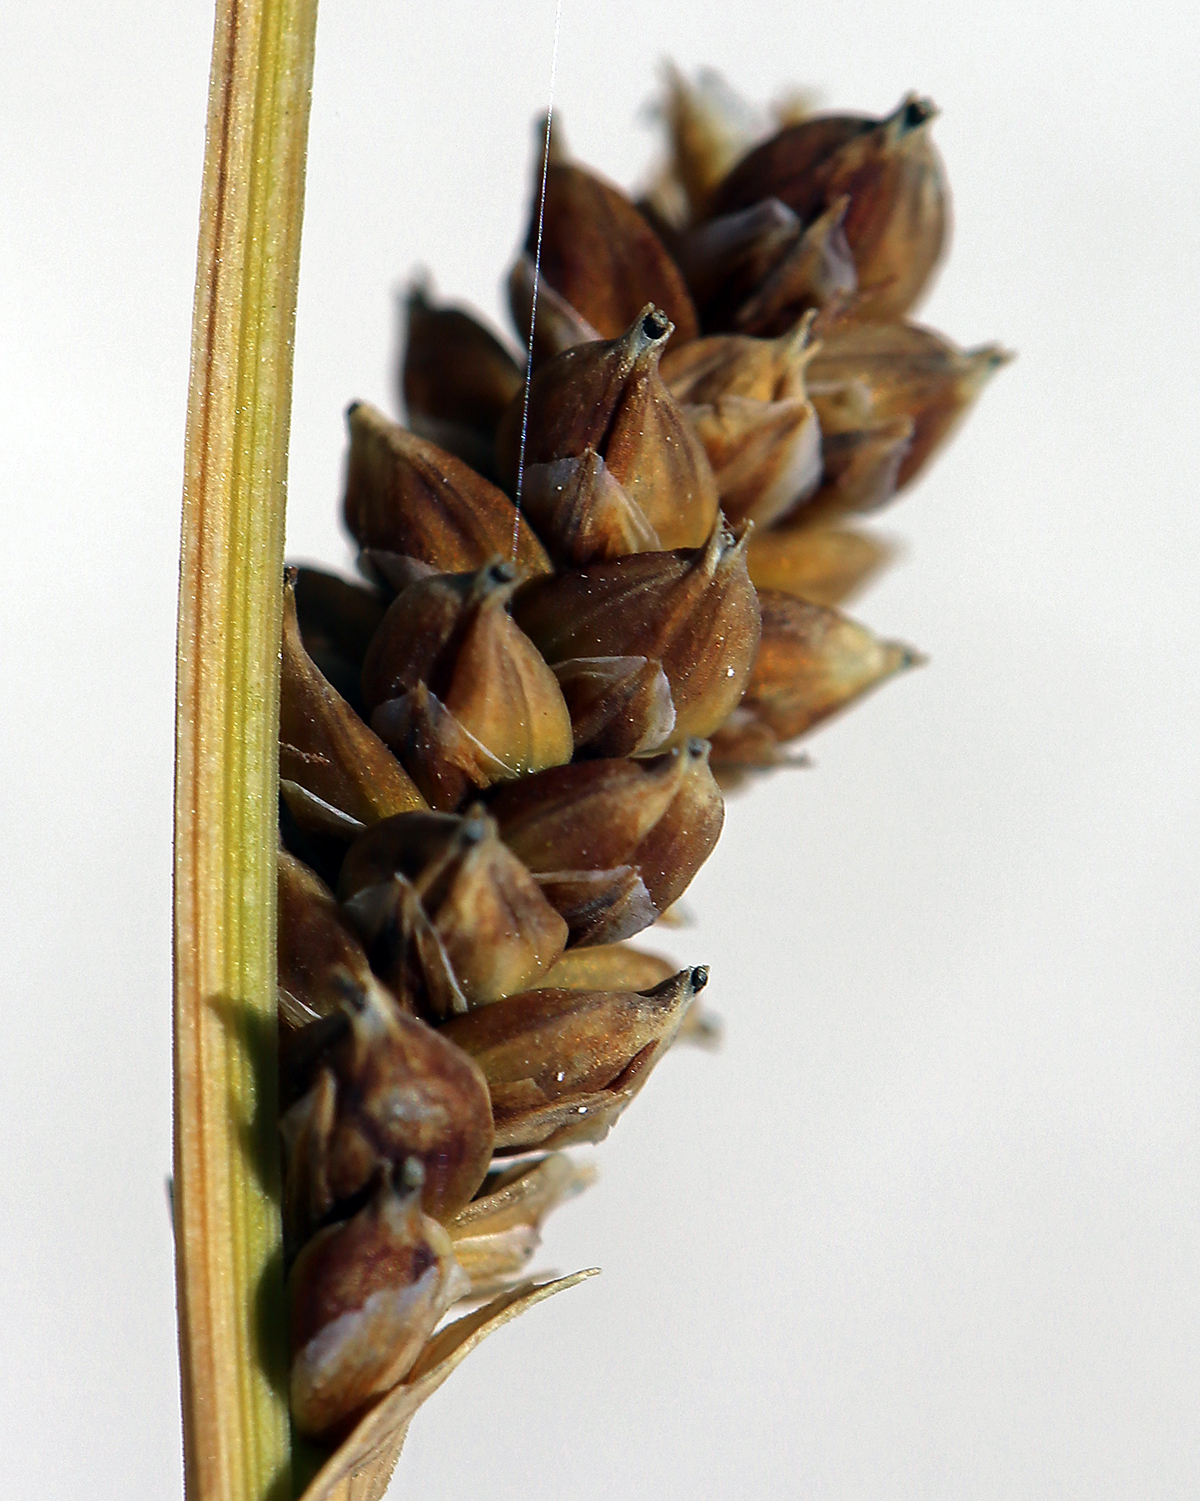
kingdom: Plantae
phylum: Tracheophyta
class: Liliopsida
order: Poales
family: Cyperaceae
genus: Carex
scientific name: Carex holmgreniorum
